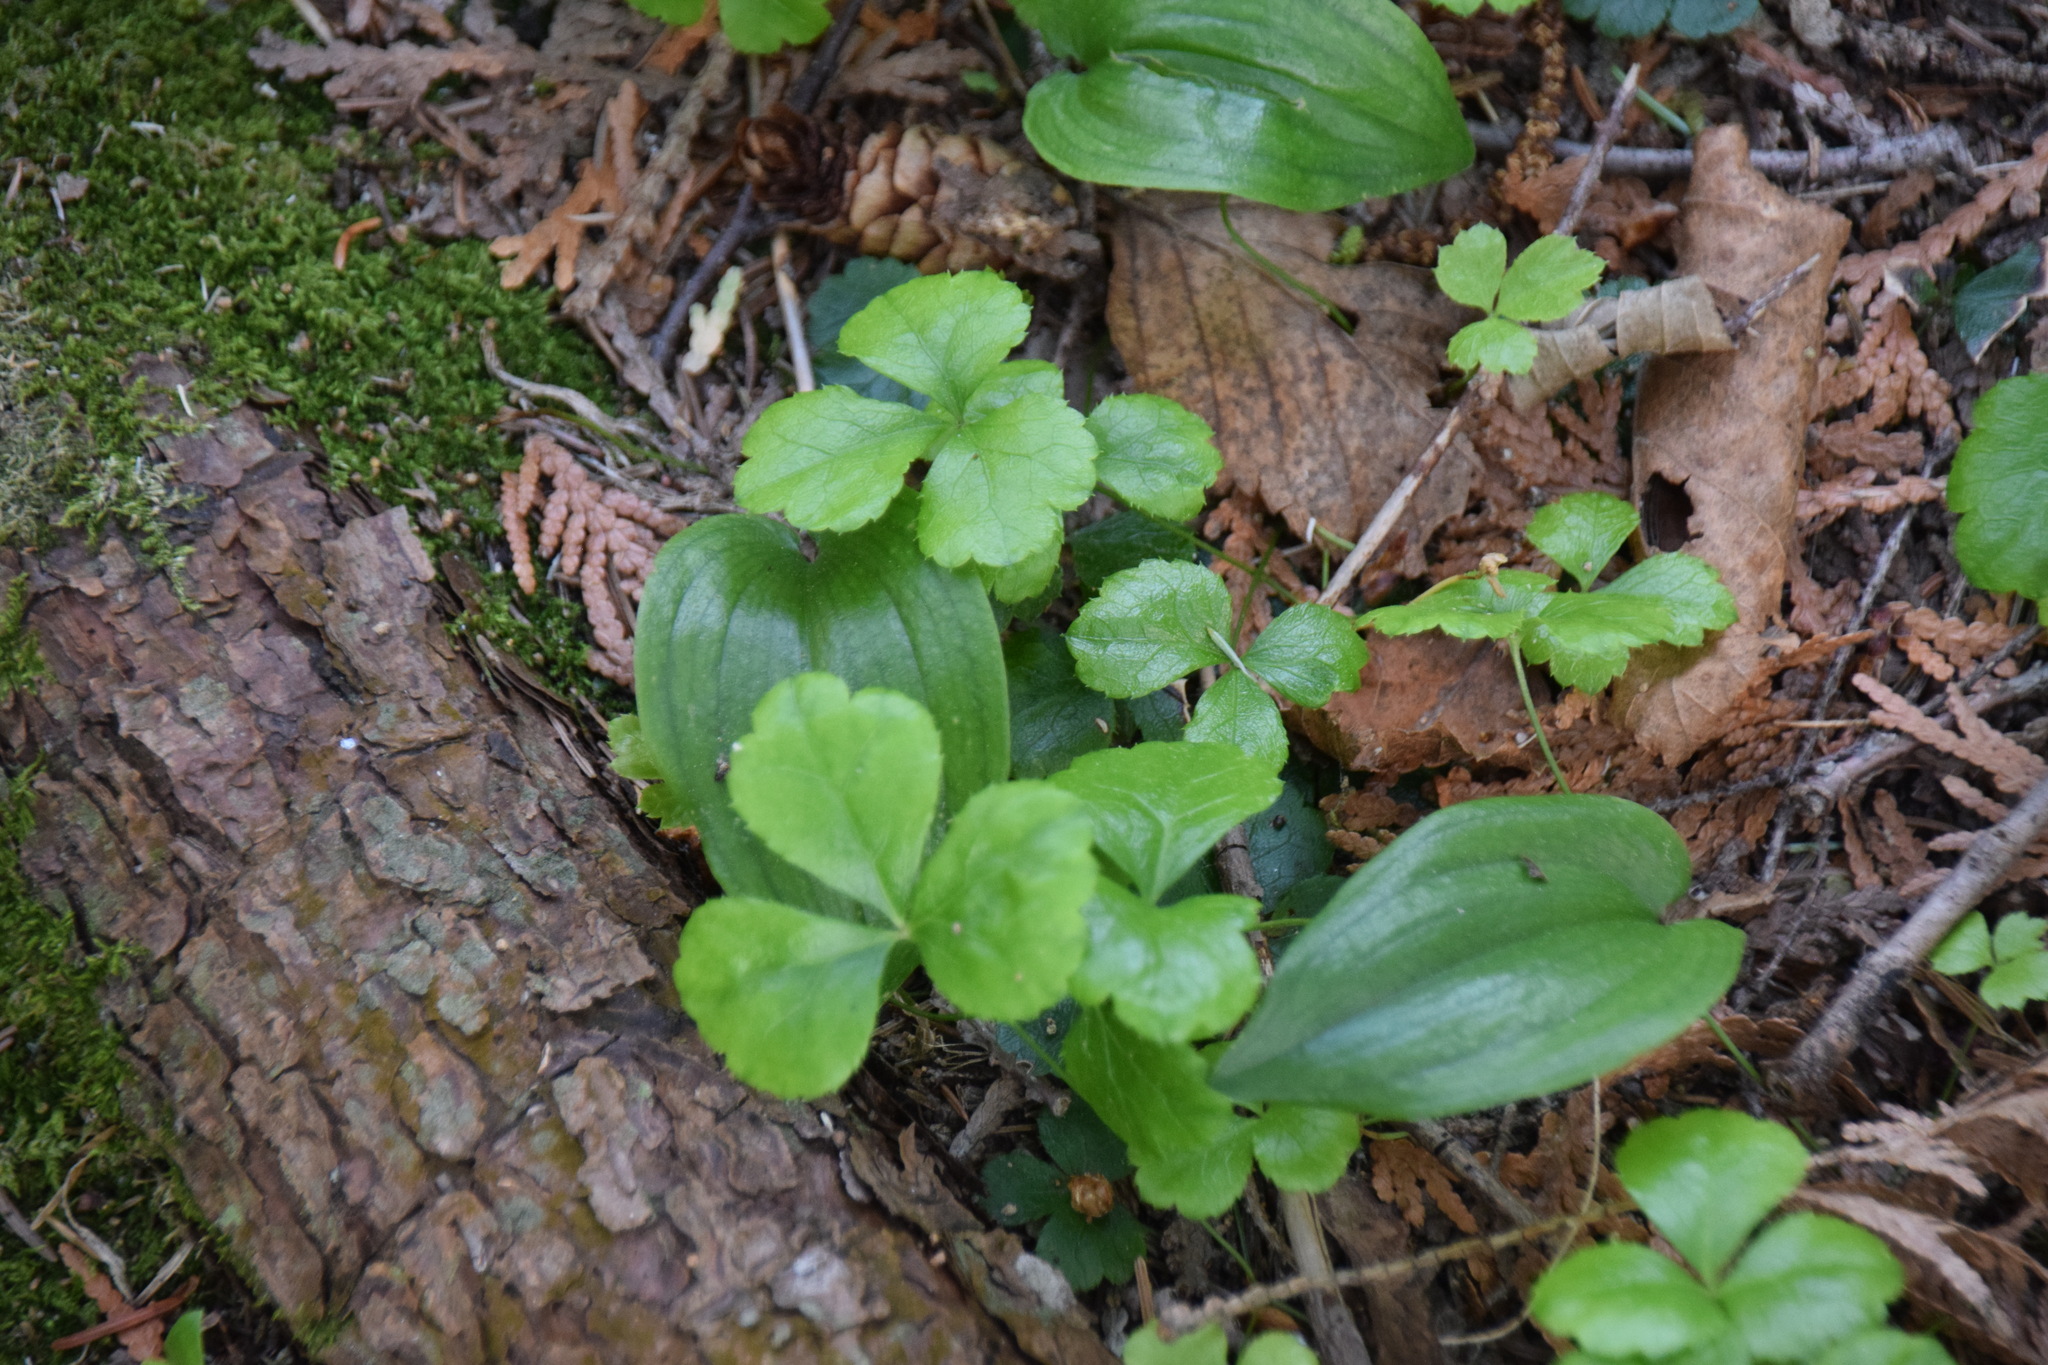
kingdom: Plantae
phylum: Tracheophyta
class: Magnoliopsida
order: Ranunculales
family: Ranunculaceae
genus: Coptis
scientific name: Coptis trifolia
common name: Canker-root
